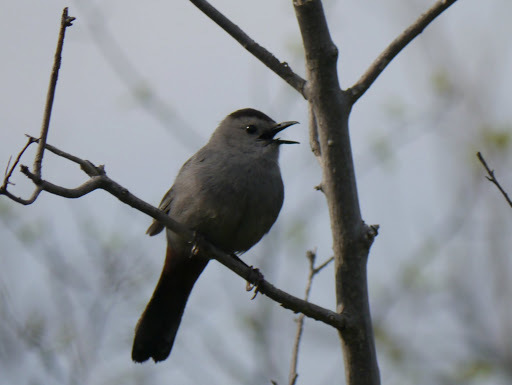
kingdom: Animalia
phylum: Chordata
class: Aves
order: Passeriformes
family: Mimidae
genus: Dumetella
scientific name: Dumetella carolinensis
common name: Gray catbird
